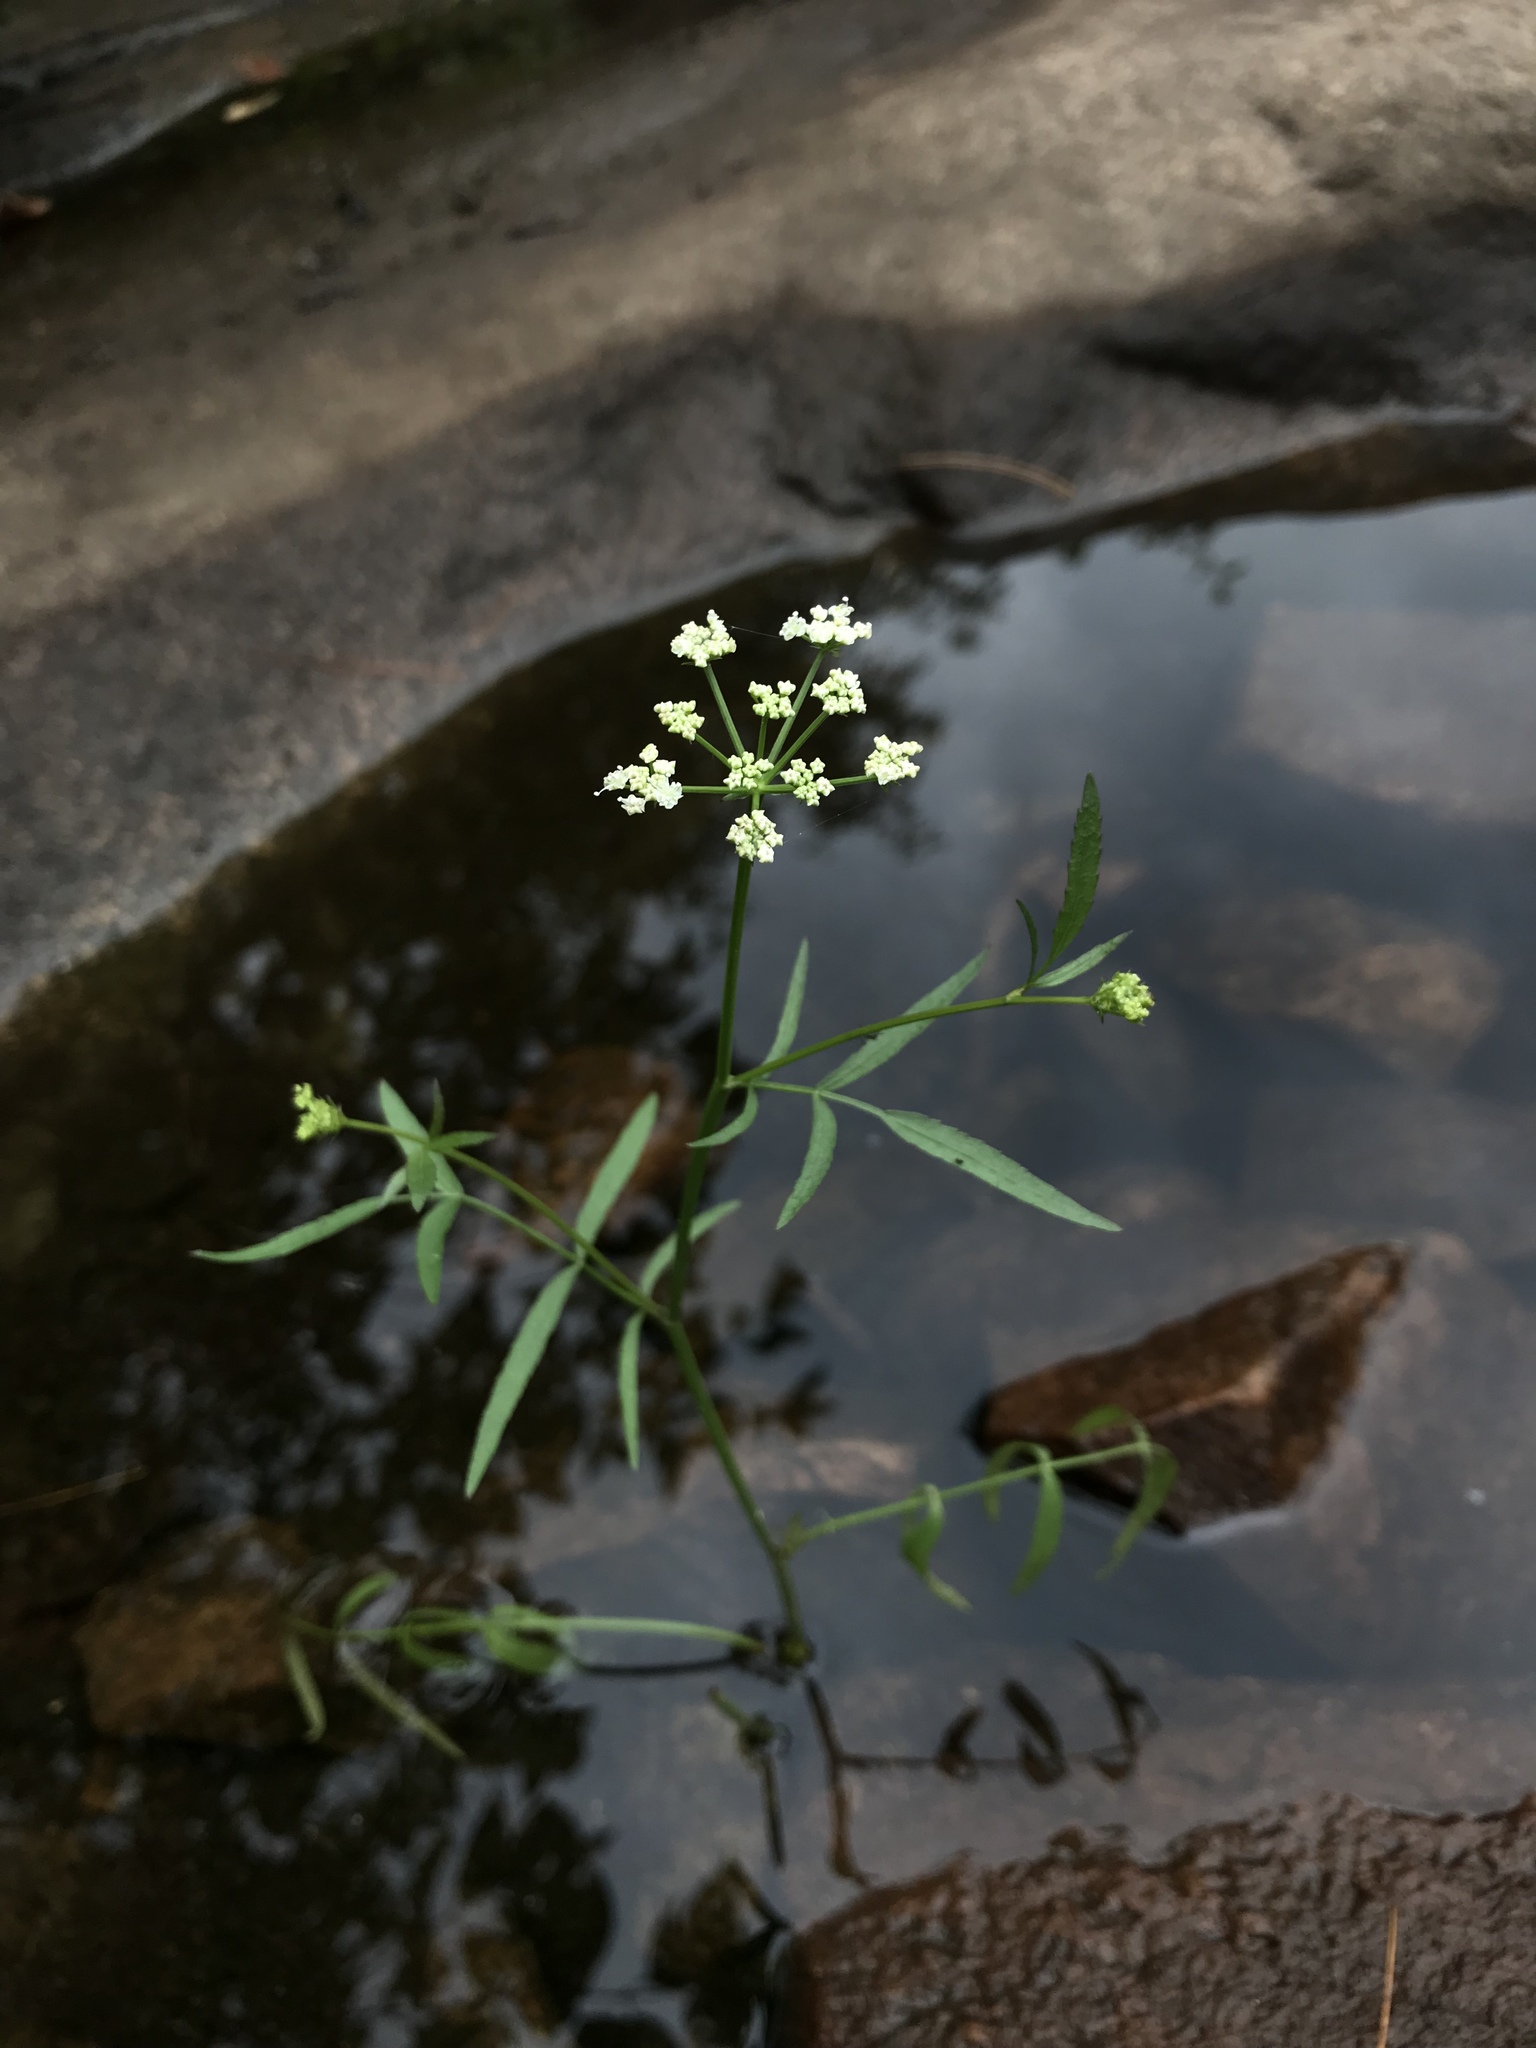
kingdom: Plantae
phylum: Tracheophyta
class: Magnoliopsida
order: Apiales
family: Apiaceae
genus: Cicuta
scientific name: Cicuta bulbifera
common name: Bulb-bearing water-hemlock
